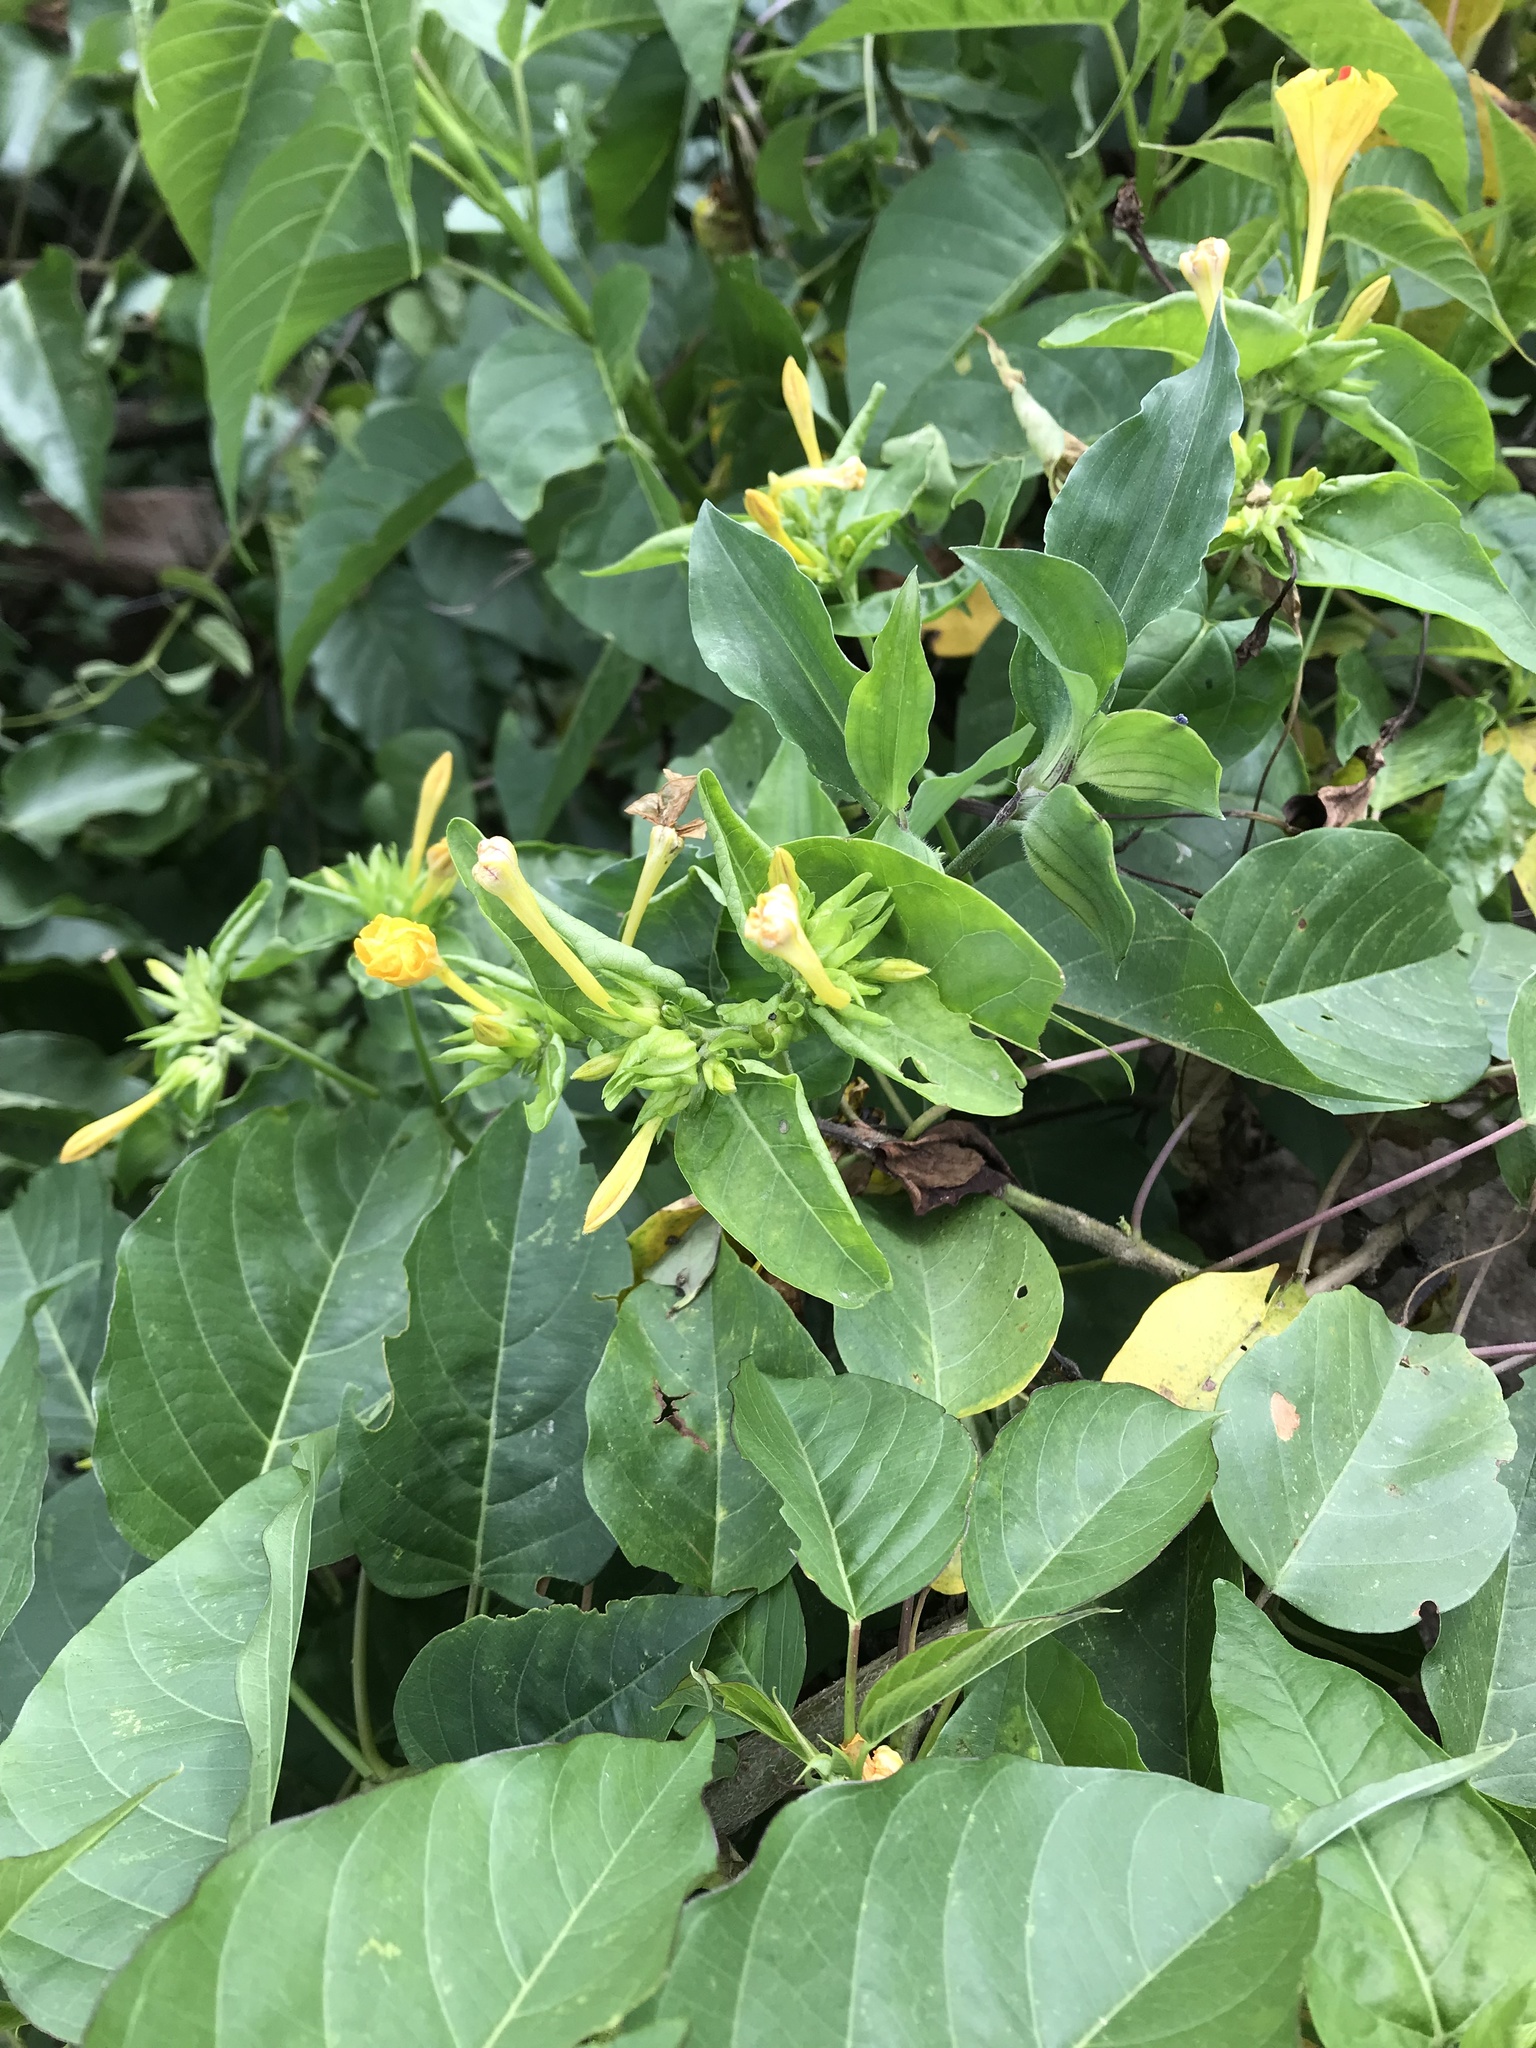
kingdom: Plantae
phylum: Tracheophyta
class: Magnoliopsida
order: Caryophyllales
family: Nyctaginaceae
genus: Mirabilis
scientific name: Mirabilis jalapa
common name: Marvel-of-peru
